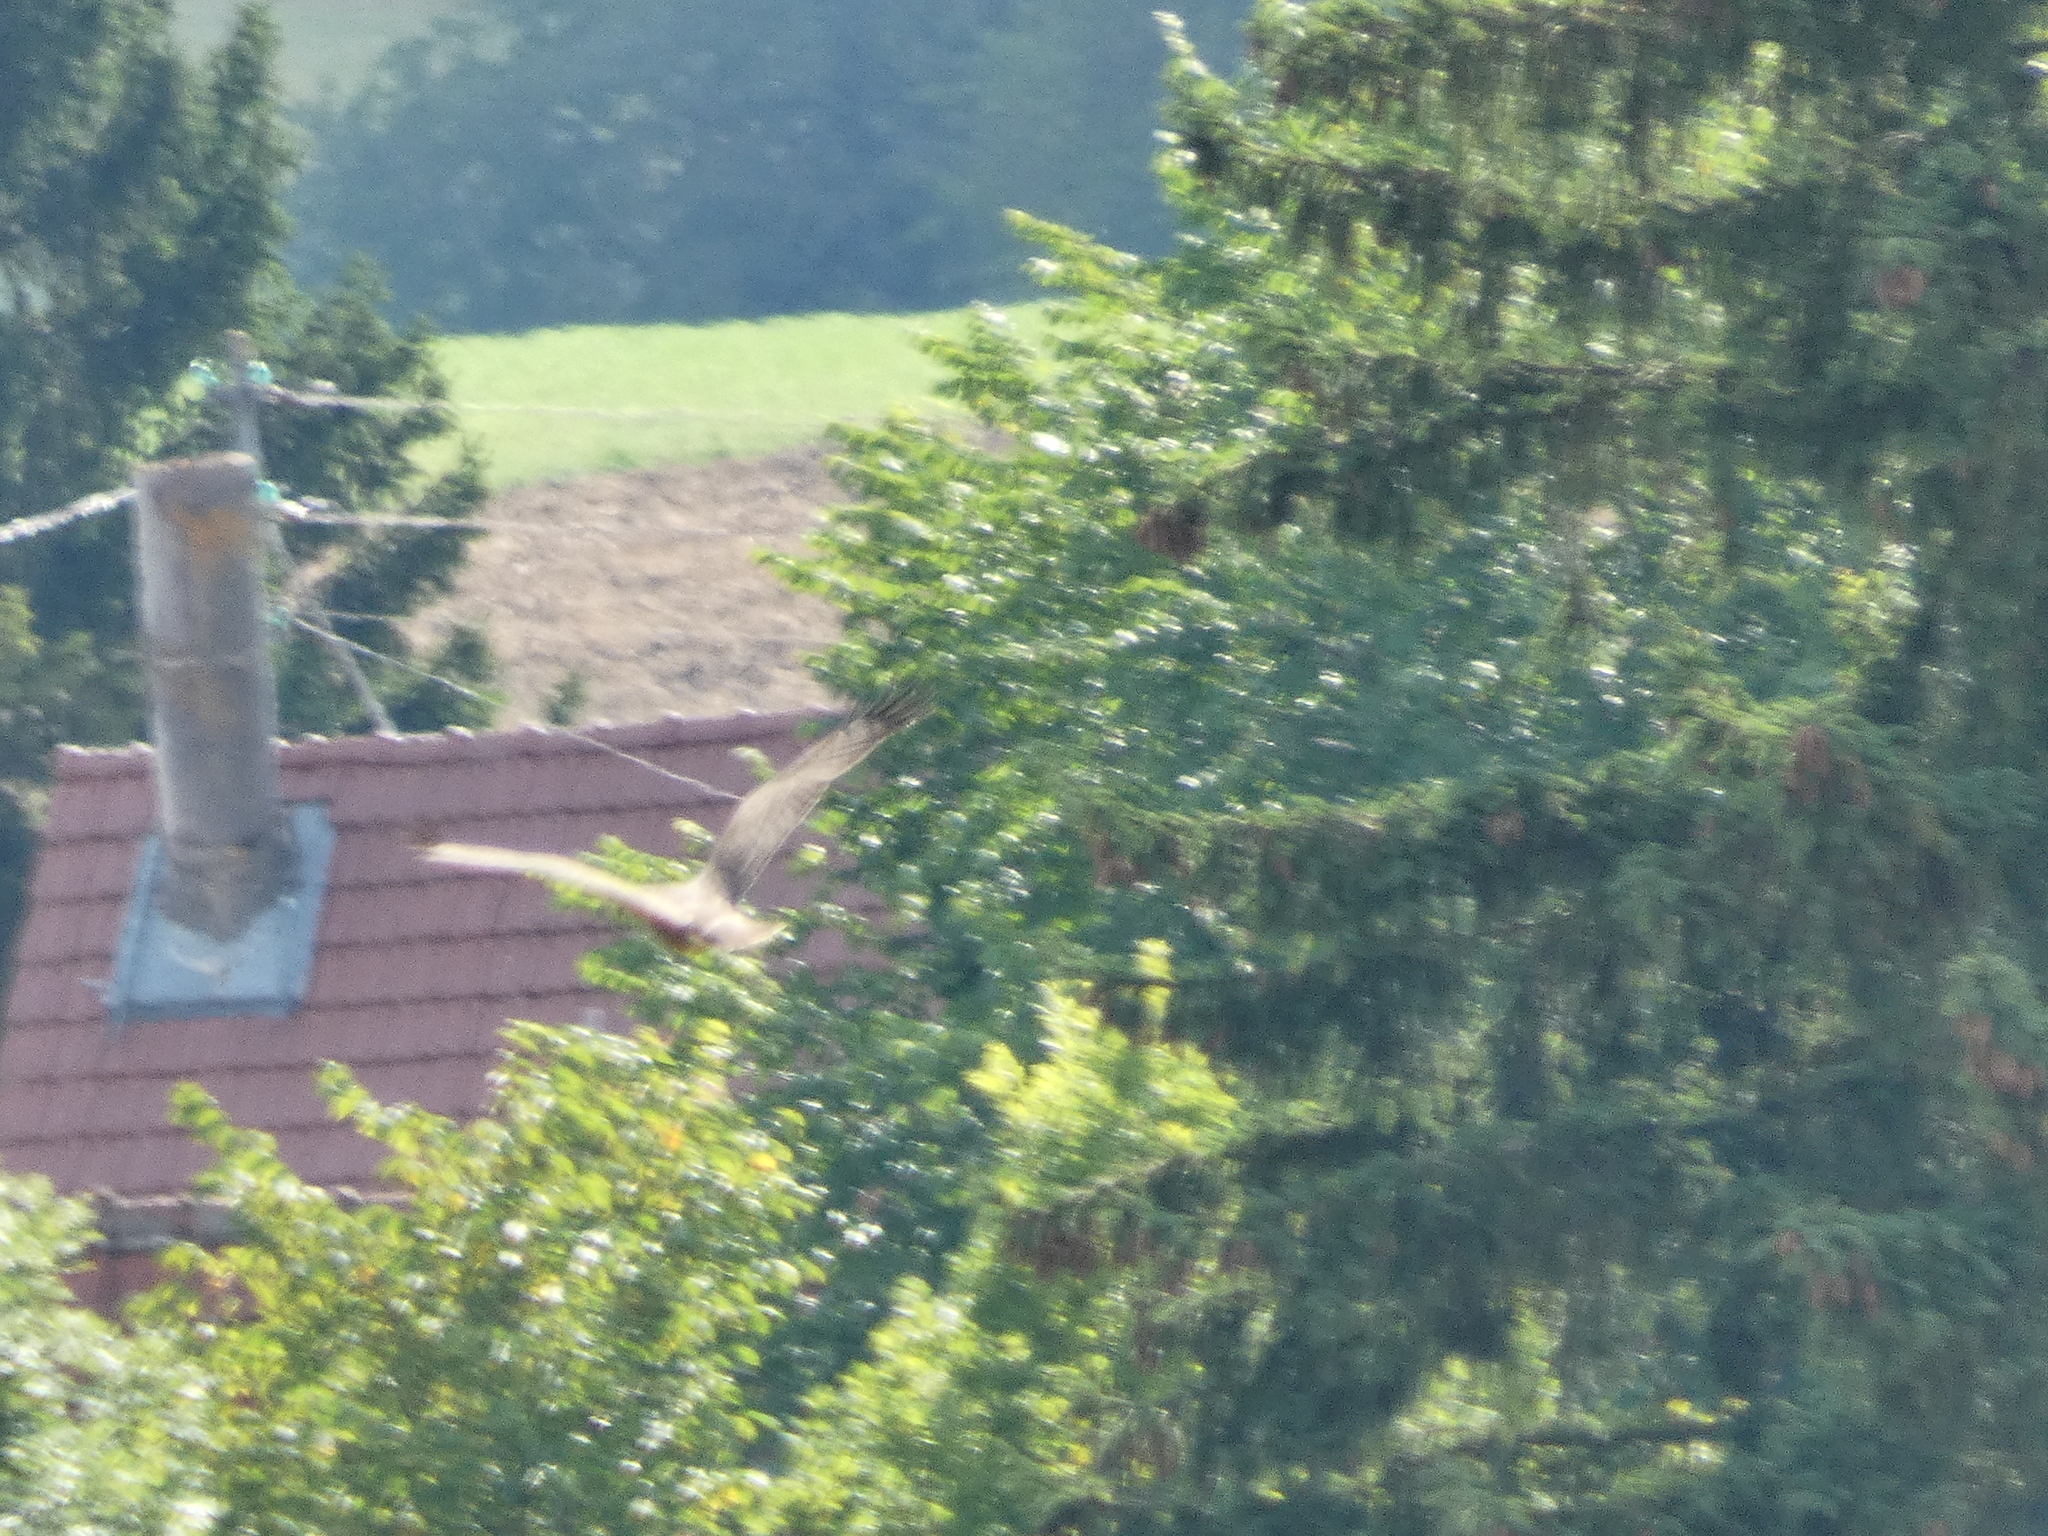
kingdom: Animalia
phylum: Chordata
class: Aves
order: Accipitriformes
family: Accipitridae
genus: Buteo
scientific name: Buteo buteo
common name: Common buzzard
